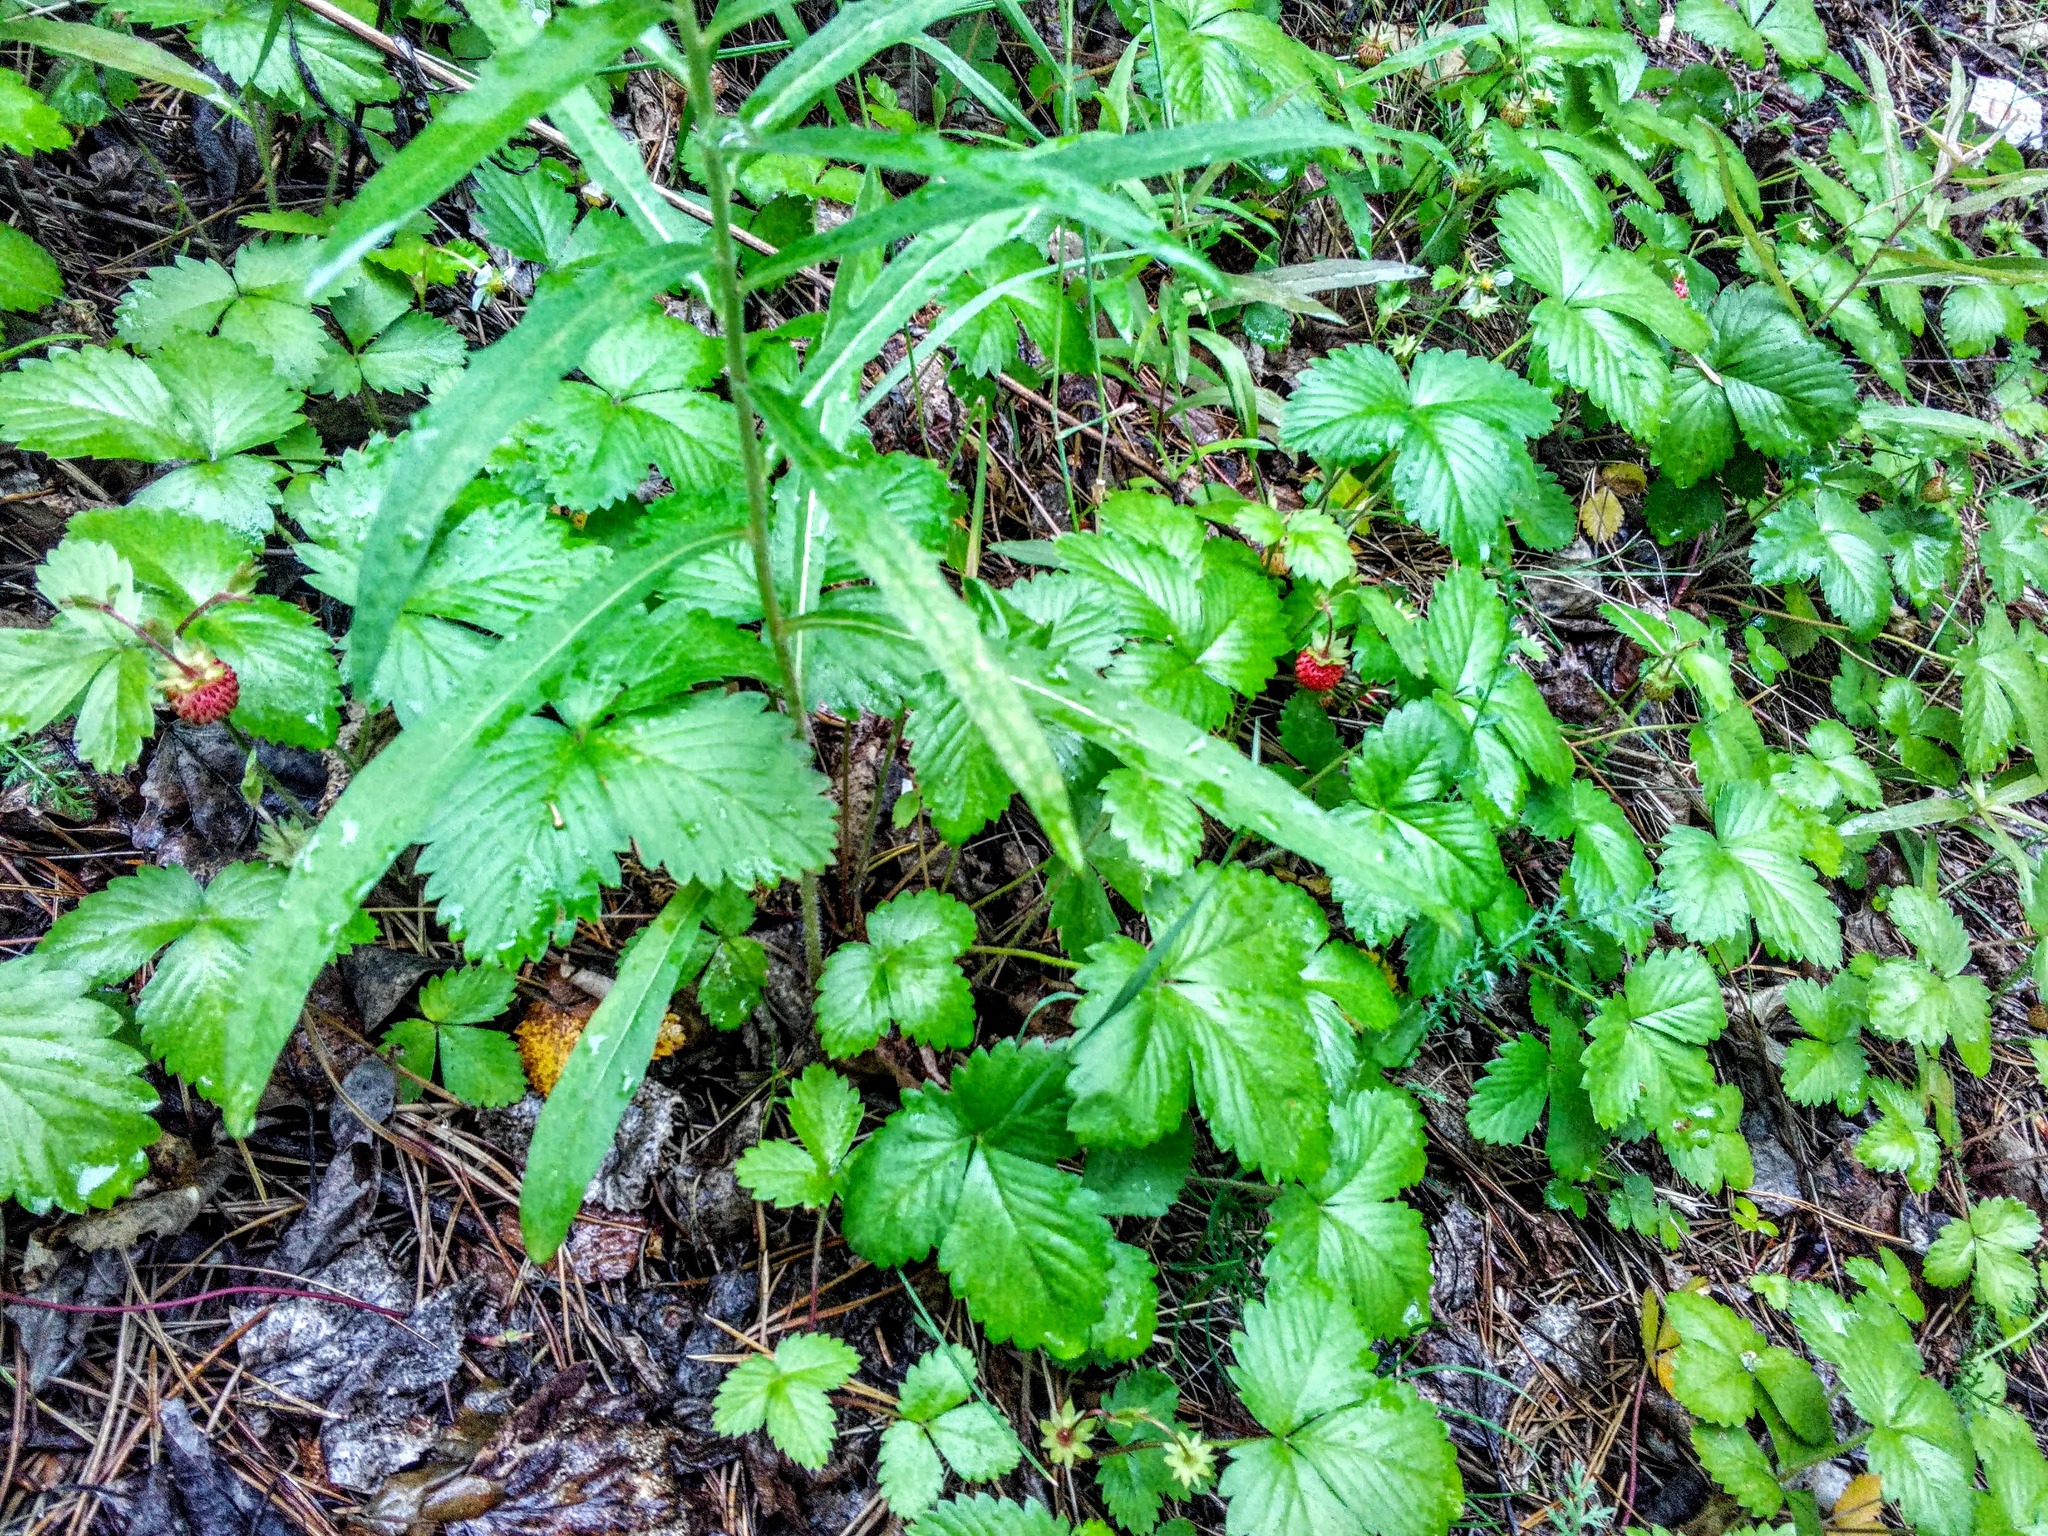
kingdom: Plantae
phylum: Tracheophyta
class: Magnoliopsida
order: Rosales
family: Rosaceae
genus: Fragaria
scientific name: Fragaria vesca
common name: Wild strawberry
